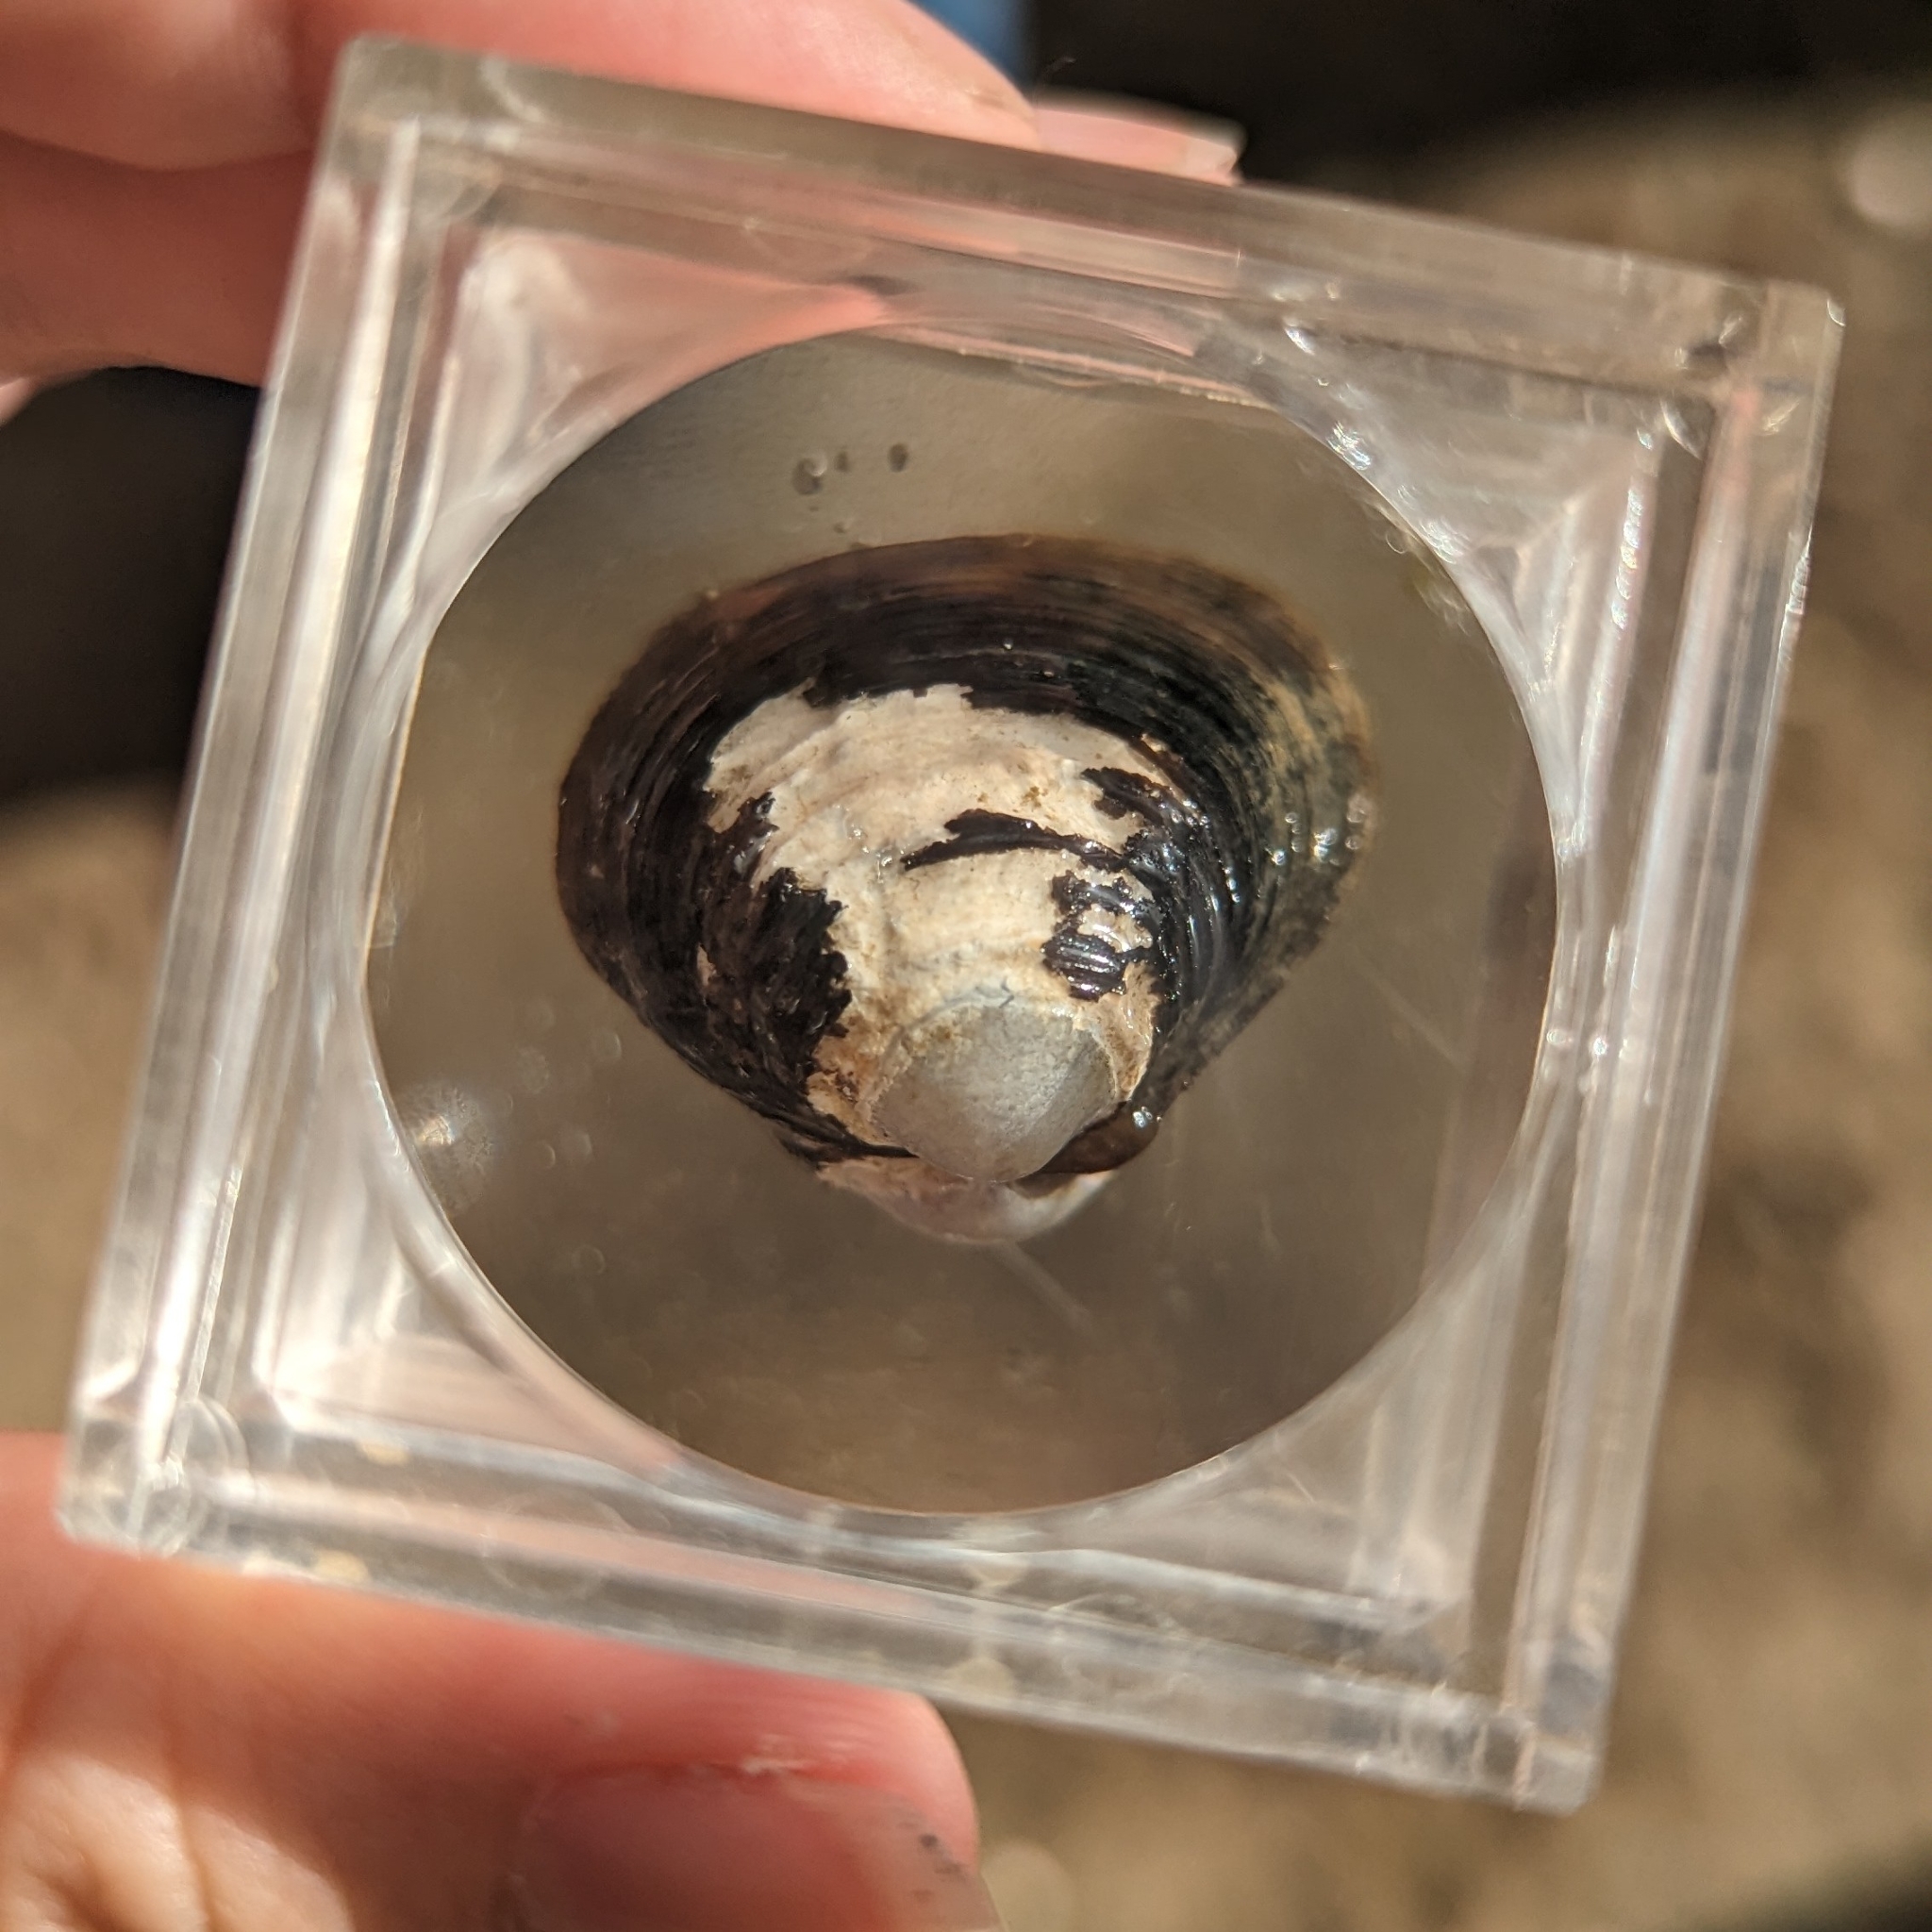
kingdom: Animalia
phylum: Mollusca
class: Bivalvia
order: Venerida
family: Cyrenidae
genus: Corbicula
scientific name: Corbicula fluminea
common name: Asian clam
